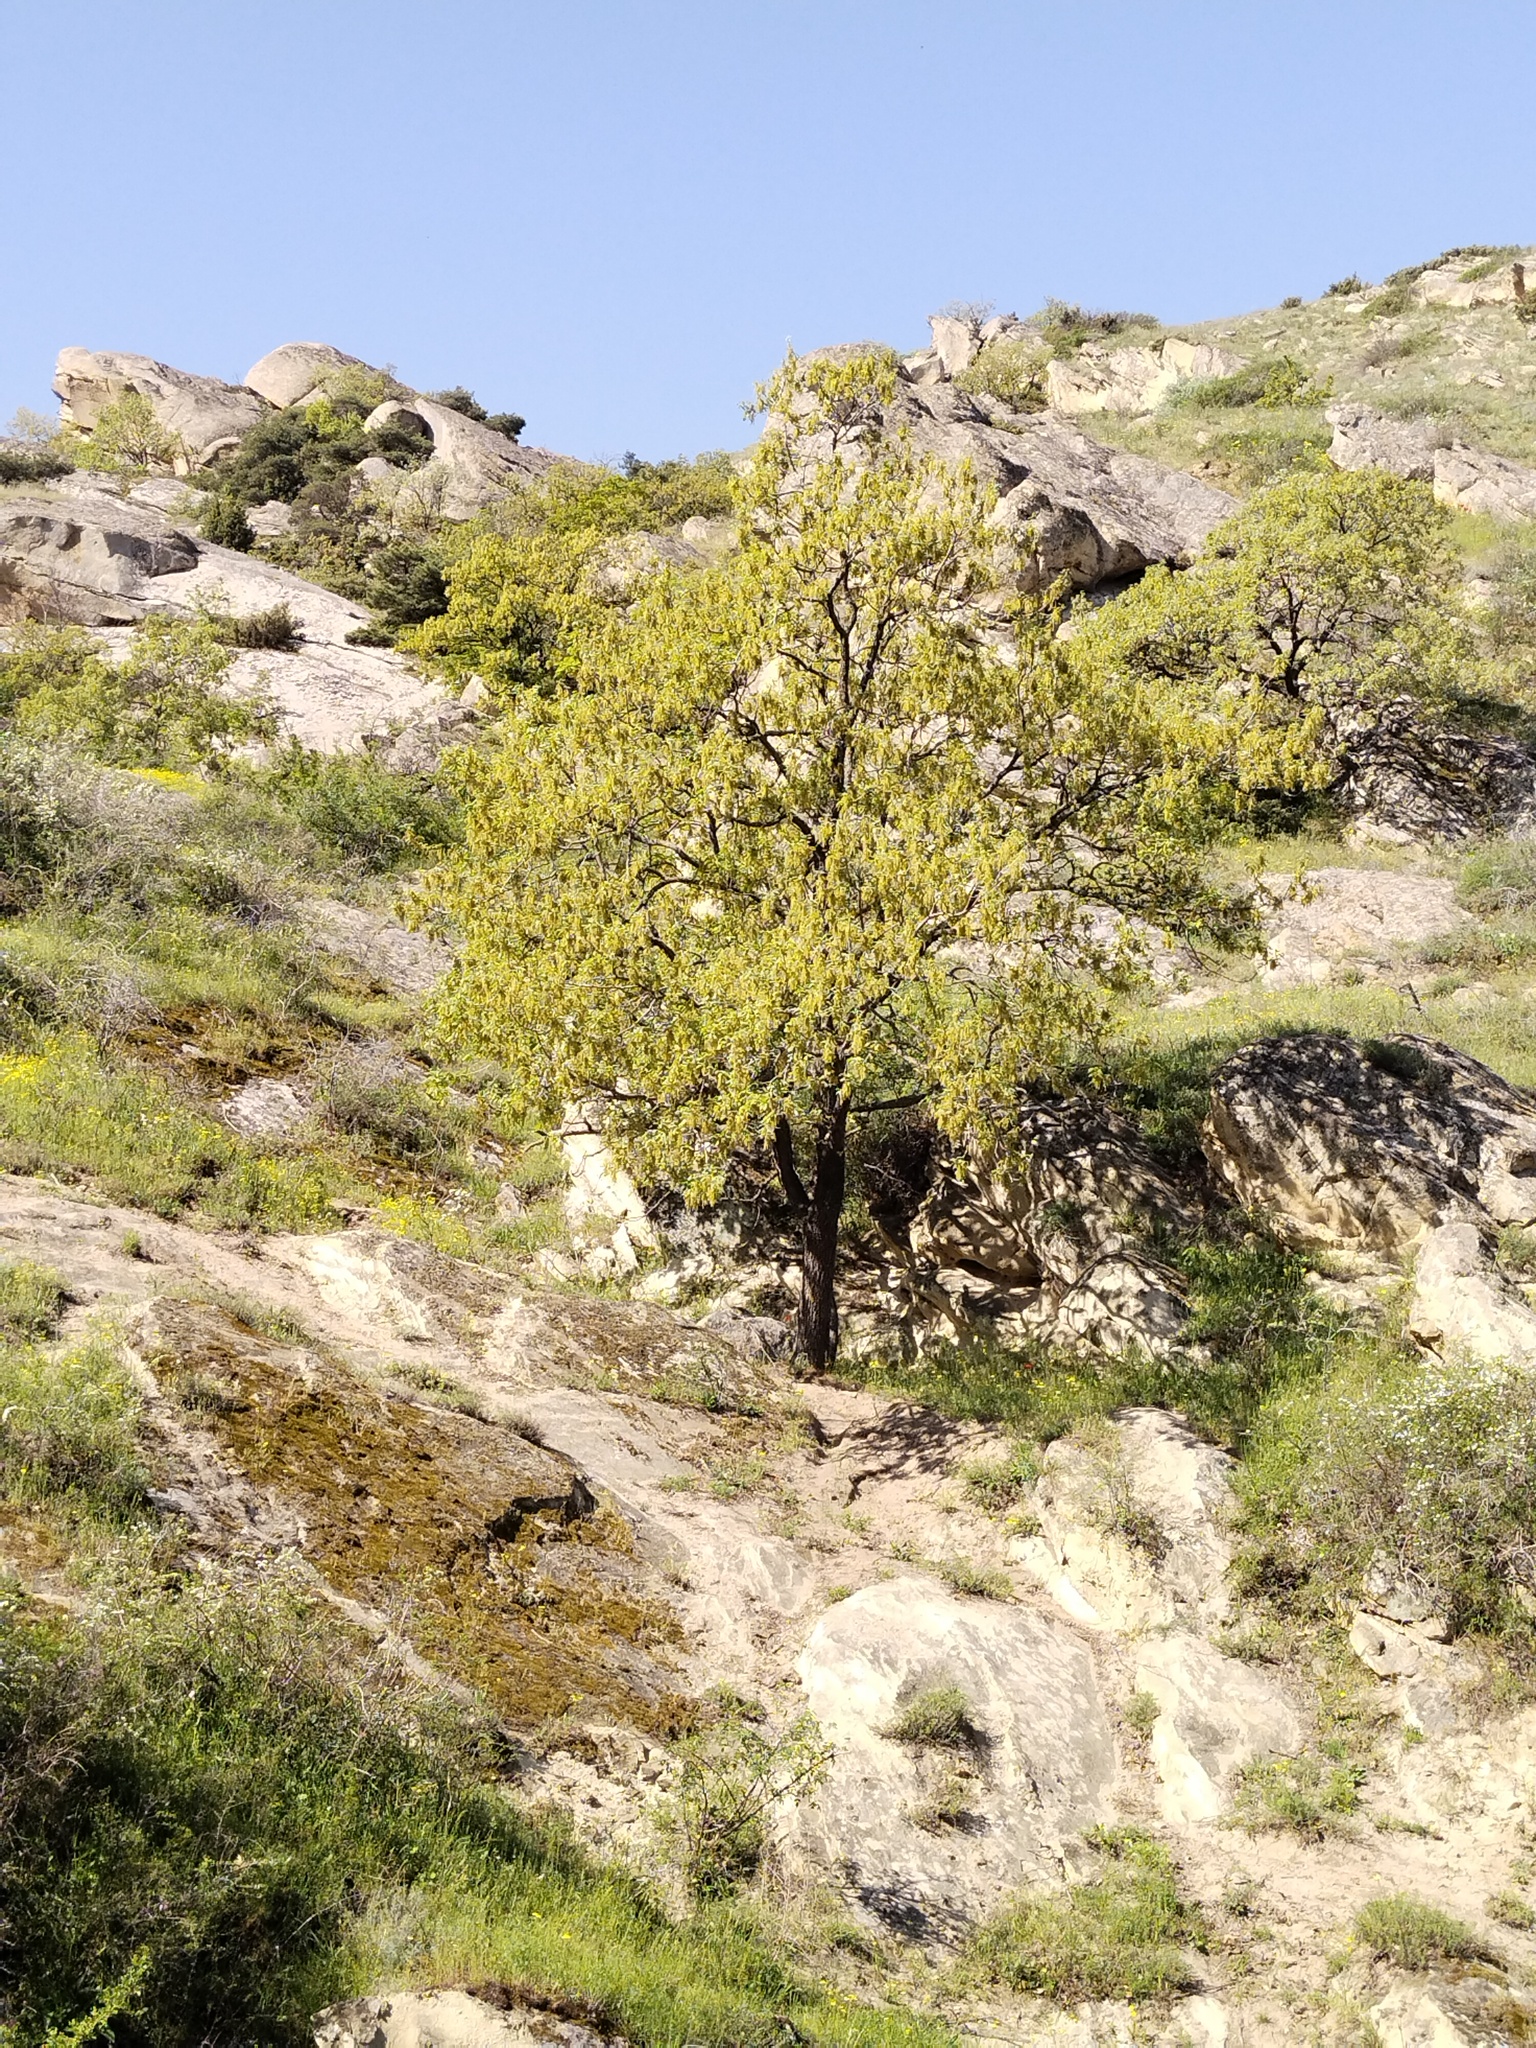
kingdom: Plantae
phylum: Tracheophyta
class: Magnoliopsida
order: Fagales
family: Fagaceae
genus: Quercus
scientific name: Quercus pubescens
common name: Downy oak
